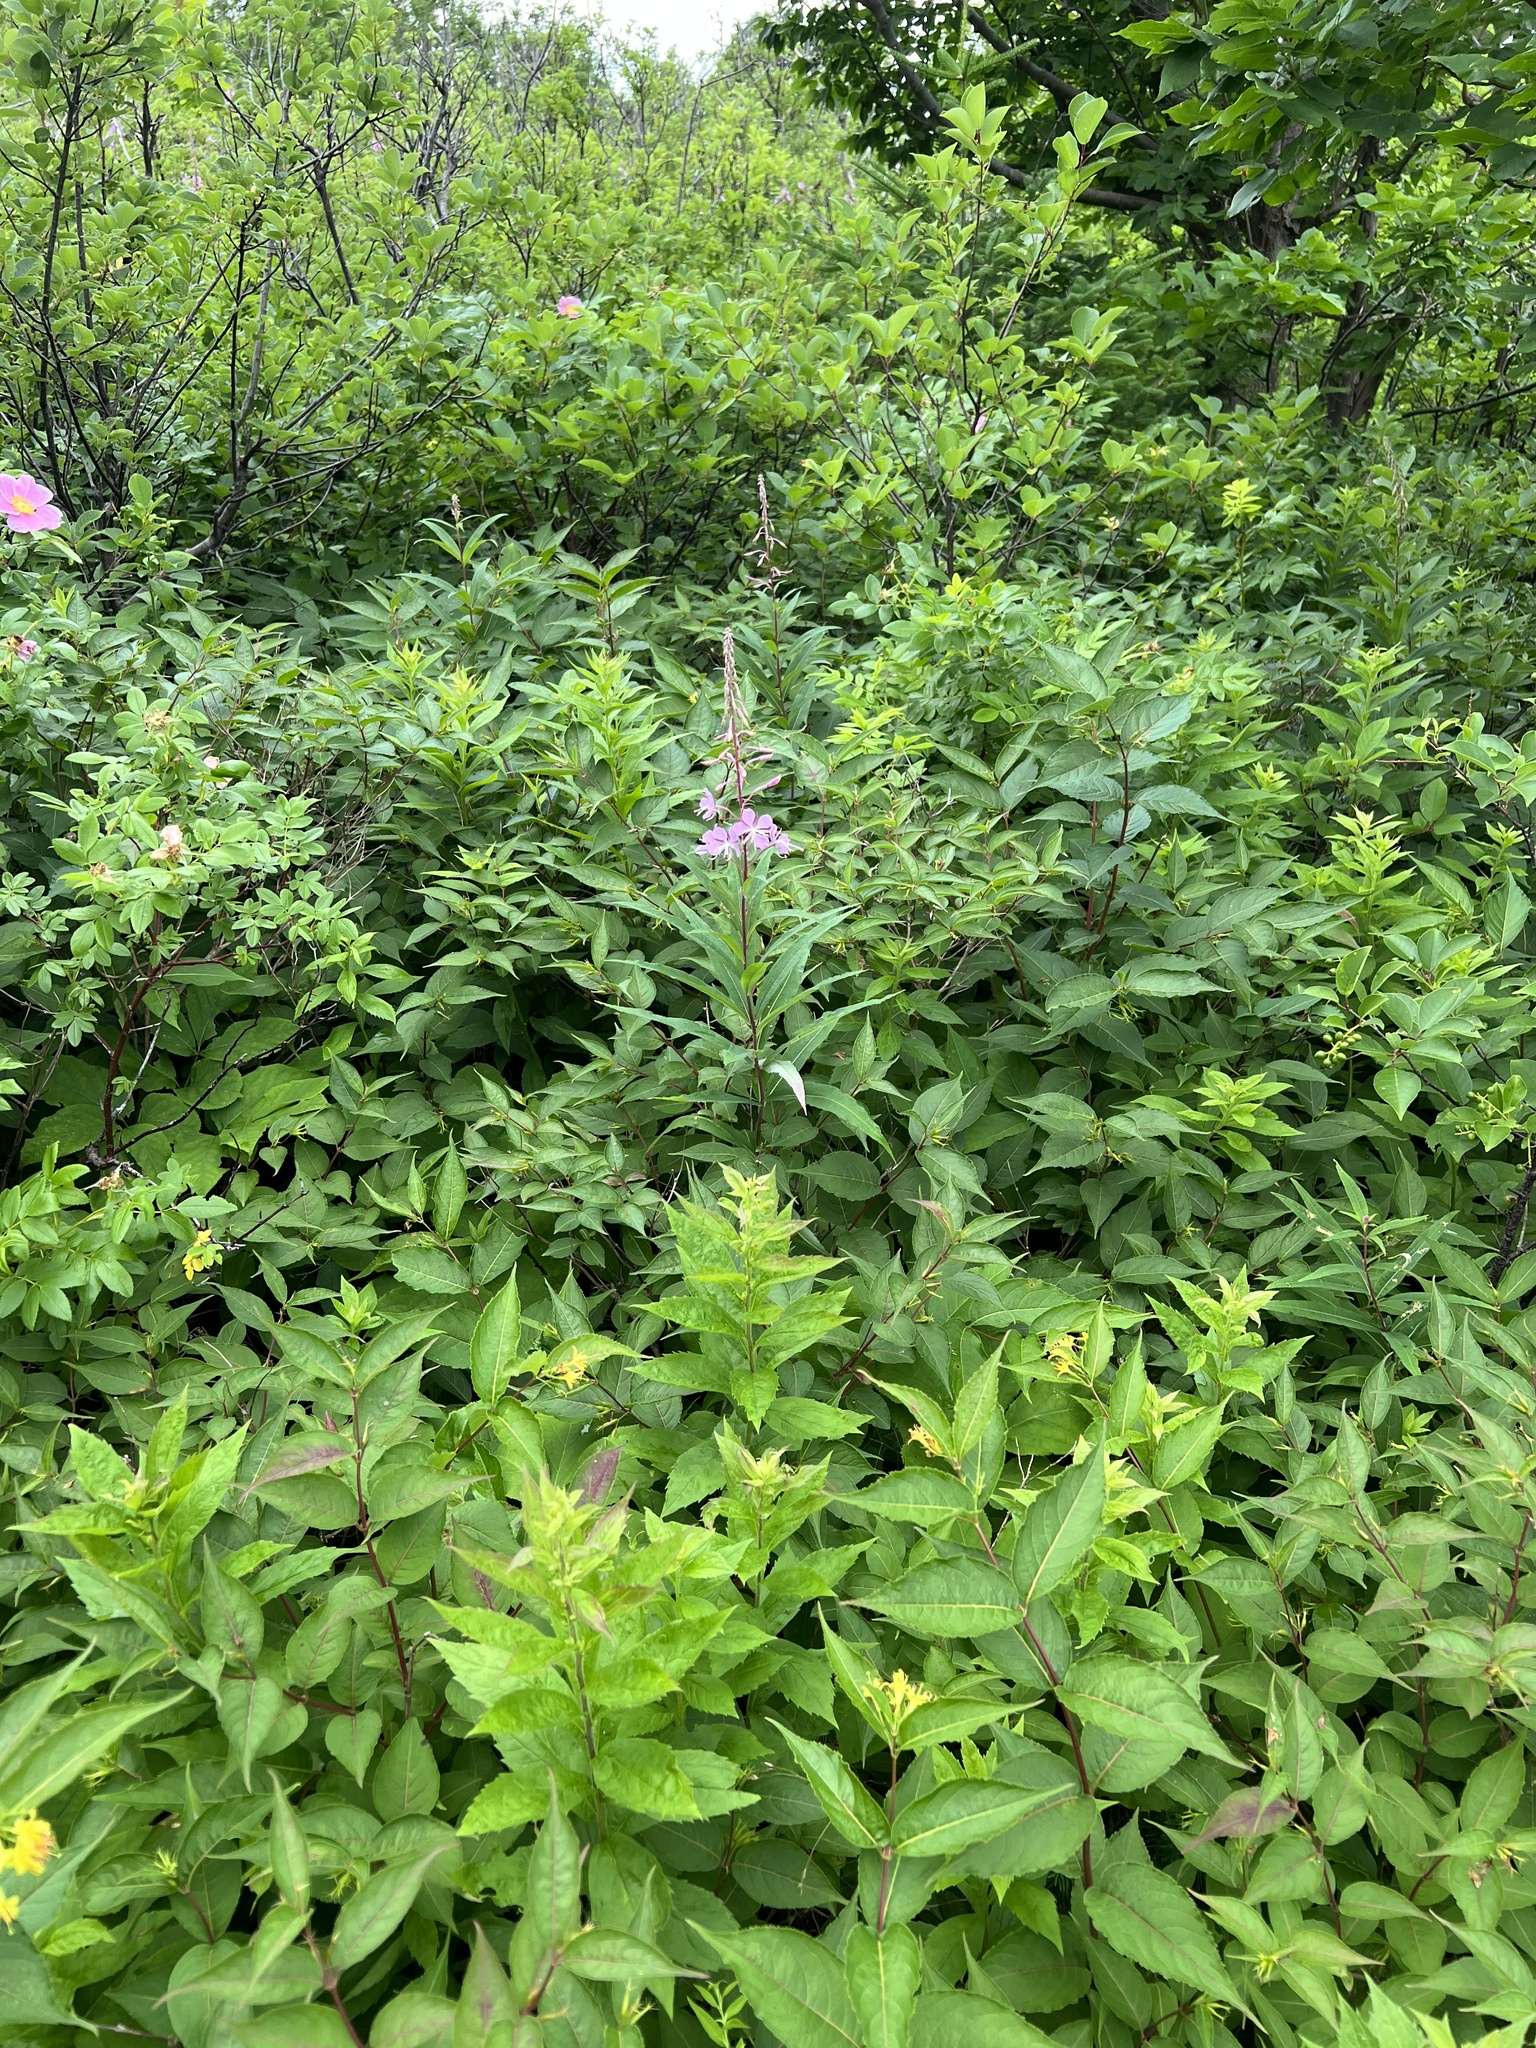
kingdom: Plantae
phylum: Tracheophyta
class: Magnoliopsida
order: Myrtales
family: Onagraceae
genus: Chamaenerion
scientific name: Chamaenerion angustifolium
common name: Fireweed
